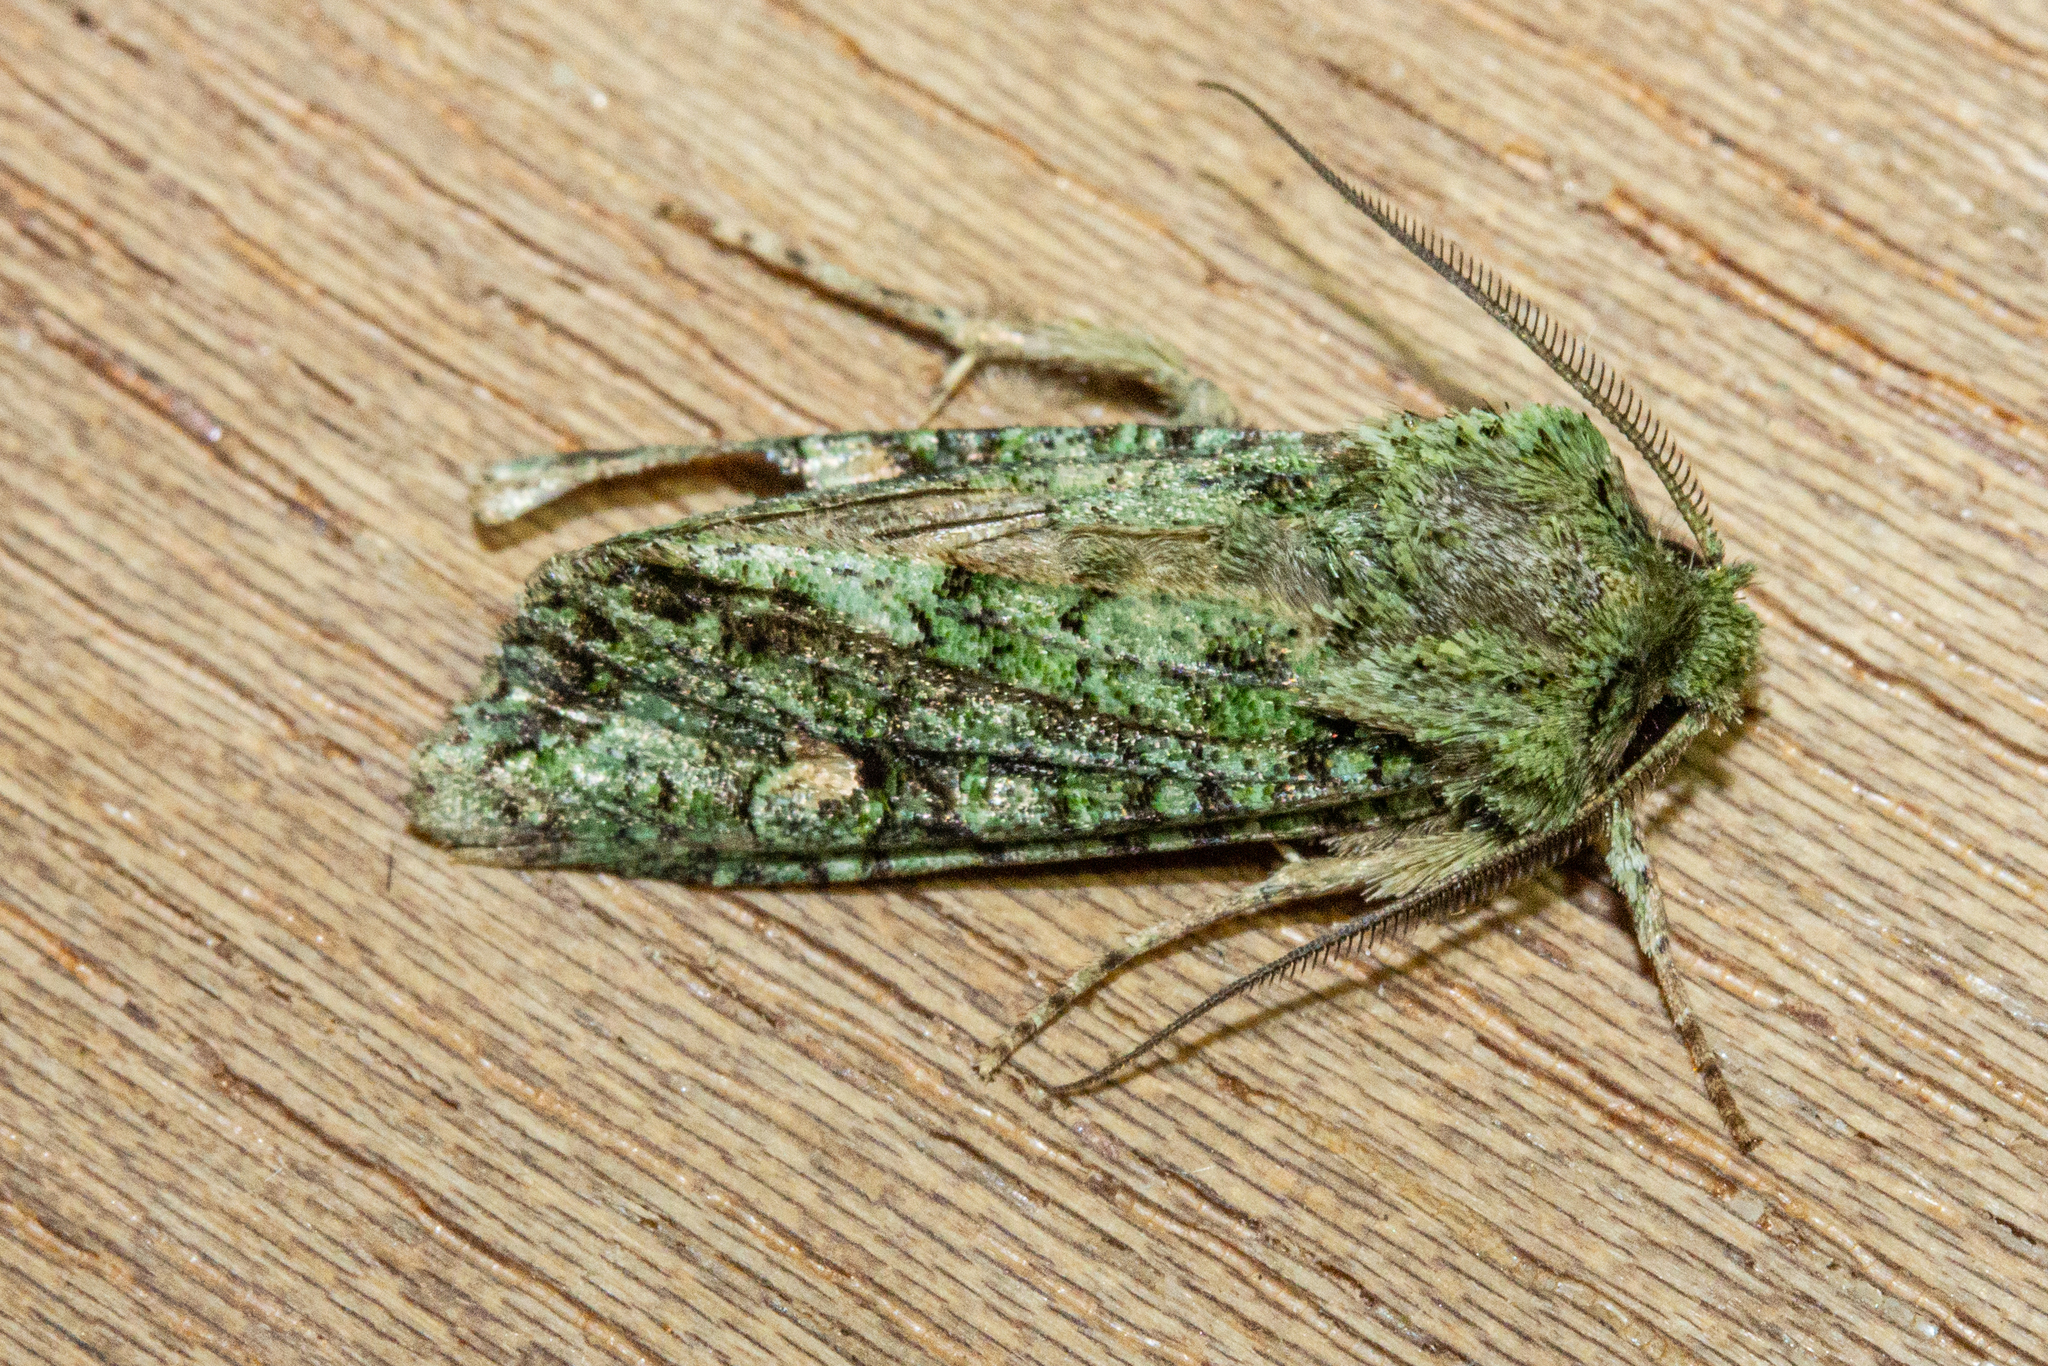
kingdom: Animalia
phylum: Arthropoda
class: Insecta
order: Lepidoptera
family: Noctuidae
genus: Ichneutica
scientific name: Ichneutica
